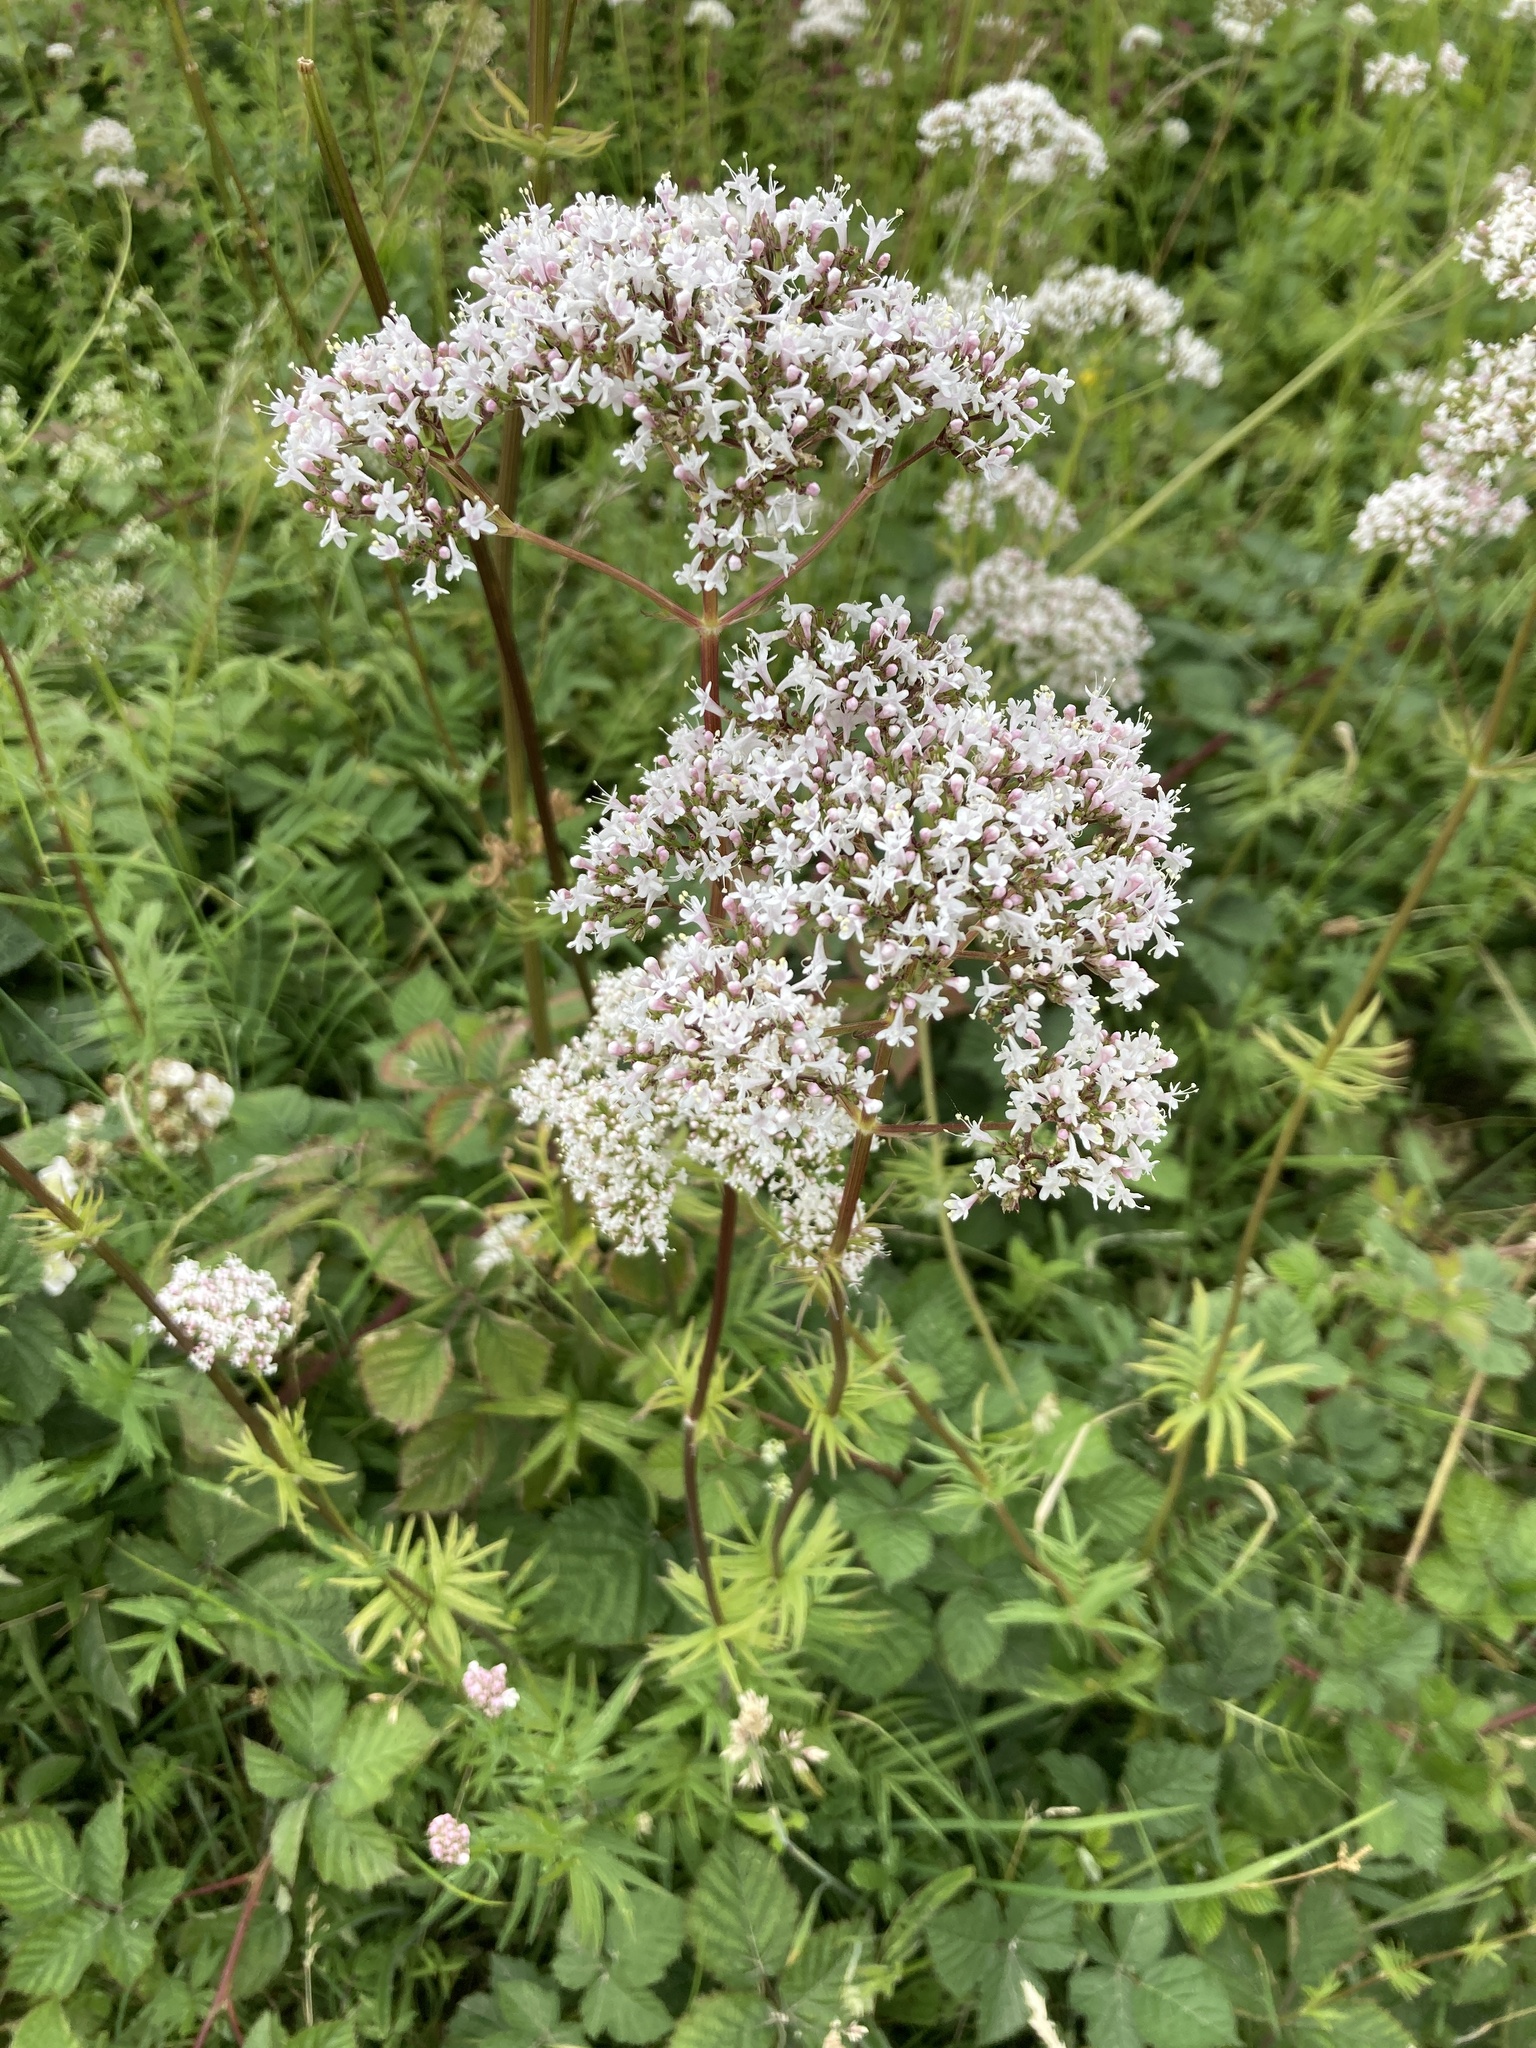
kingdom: Plantae
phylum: Tracheophyta
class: Magnoliopsida
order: Dipsacales
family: Caprifoliaceae
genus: Valeriana
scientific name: Valeriana officinalis
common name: Common valerian
